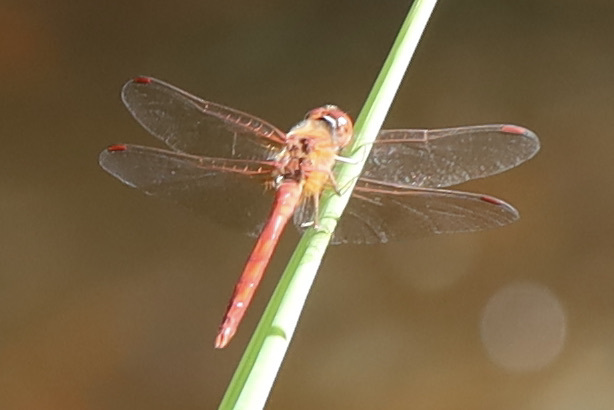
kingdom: Animalia
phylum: Arthropoda
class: Insecta
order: Odonata
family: Libellulidae
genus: Sympetrum
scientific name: Sympetrum vicinum
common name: Autumn meadowhawk
